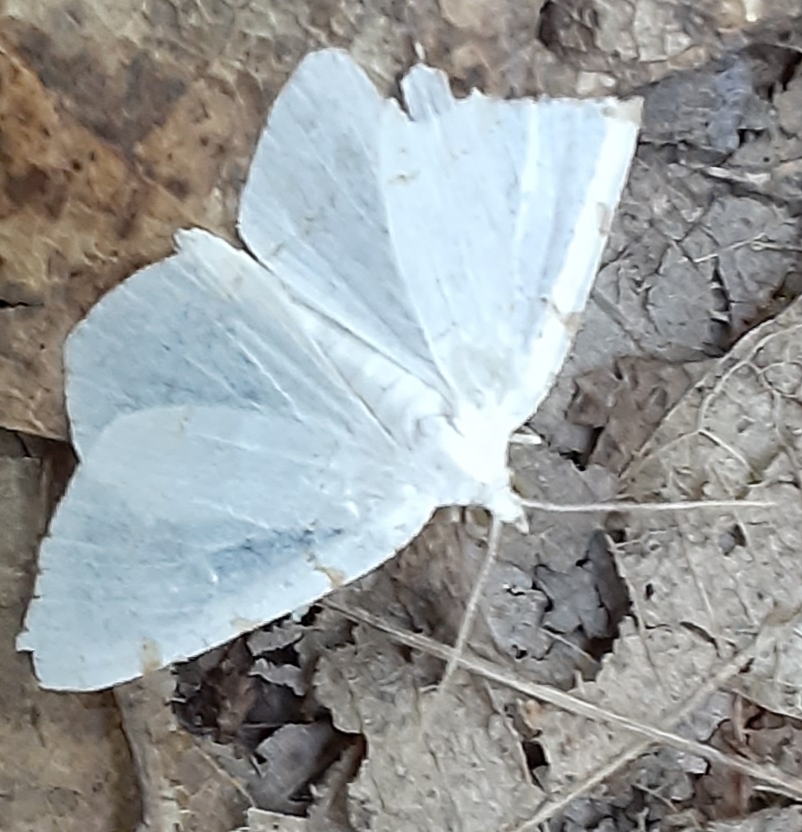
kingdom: Animalia
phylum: Arthropoda
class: Insecta
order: Lepidoptera
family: Geometridae
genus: Macaria
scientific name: Macaria pustularia
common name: Lesser maple spanworm moth
